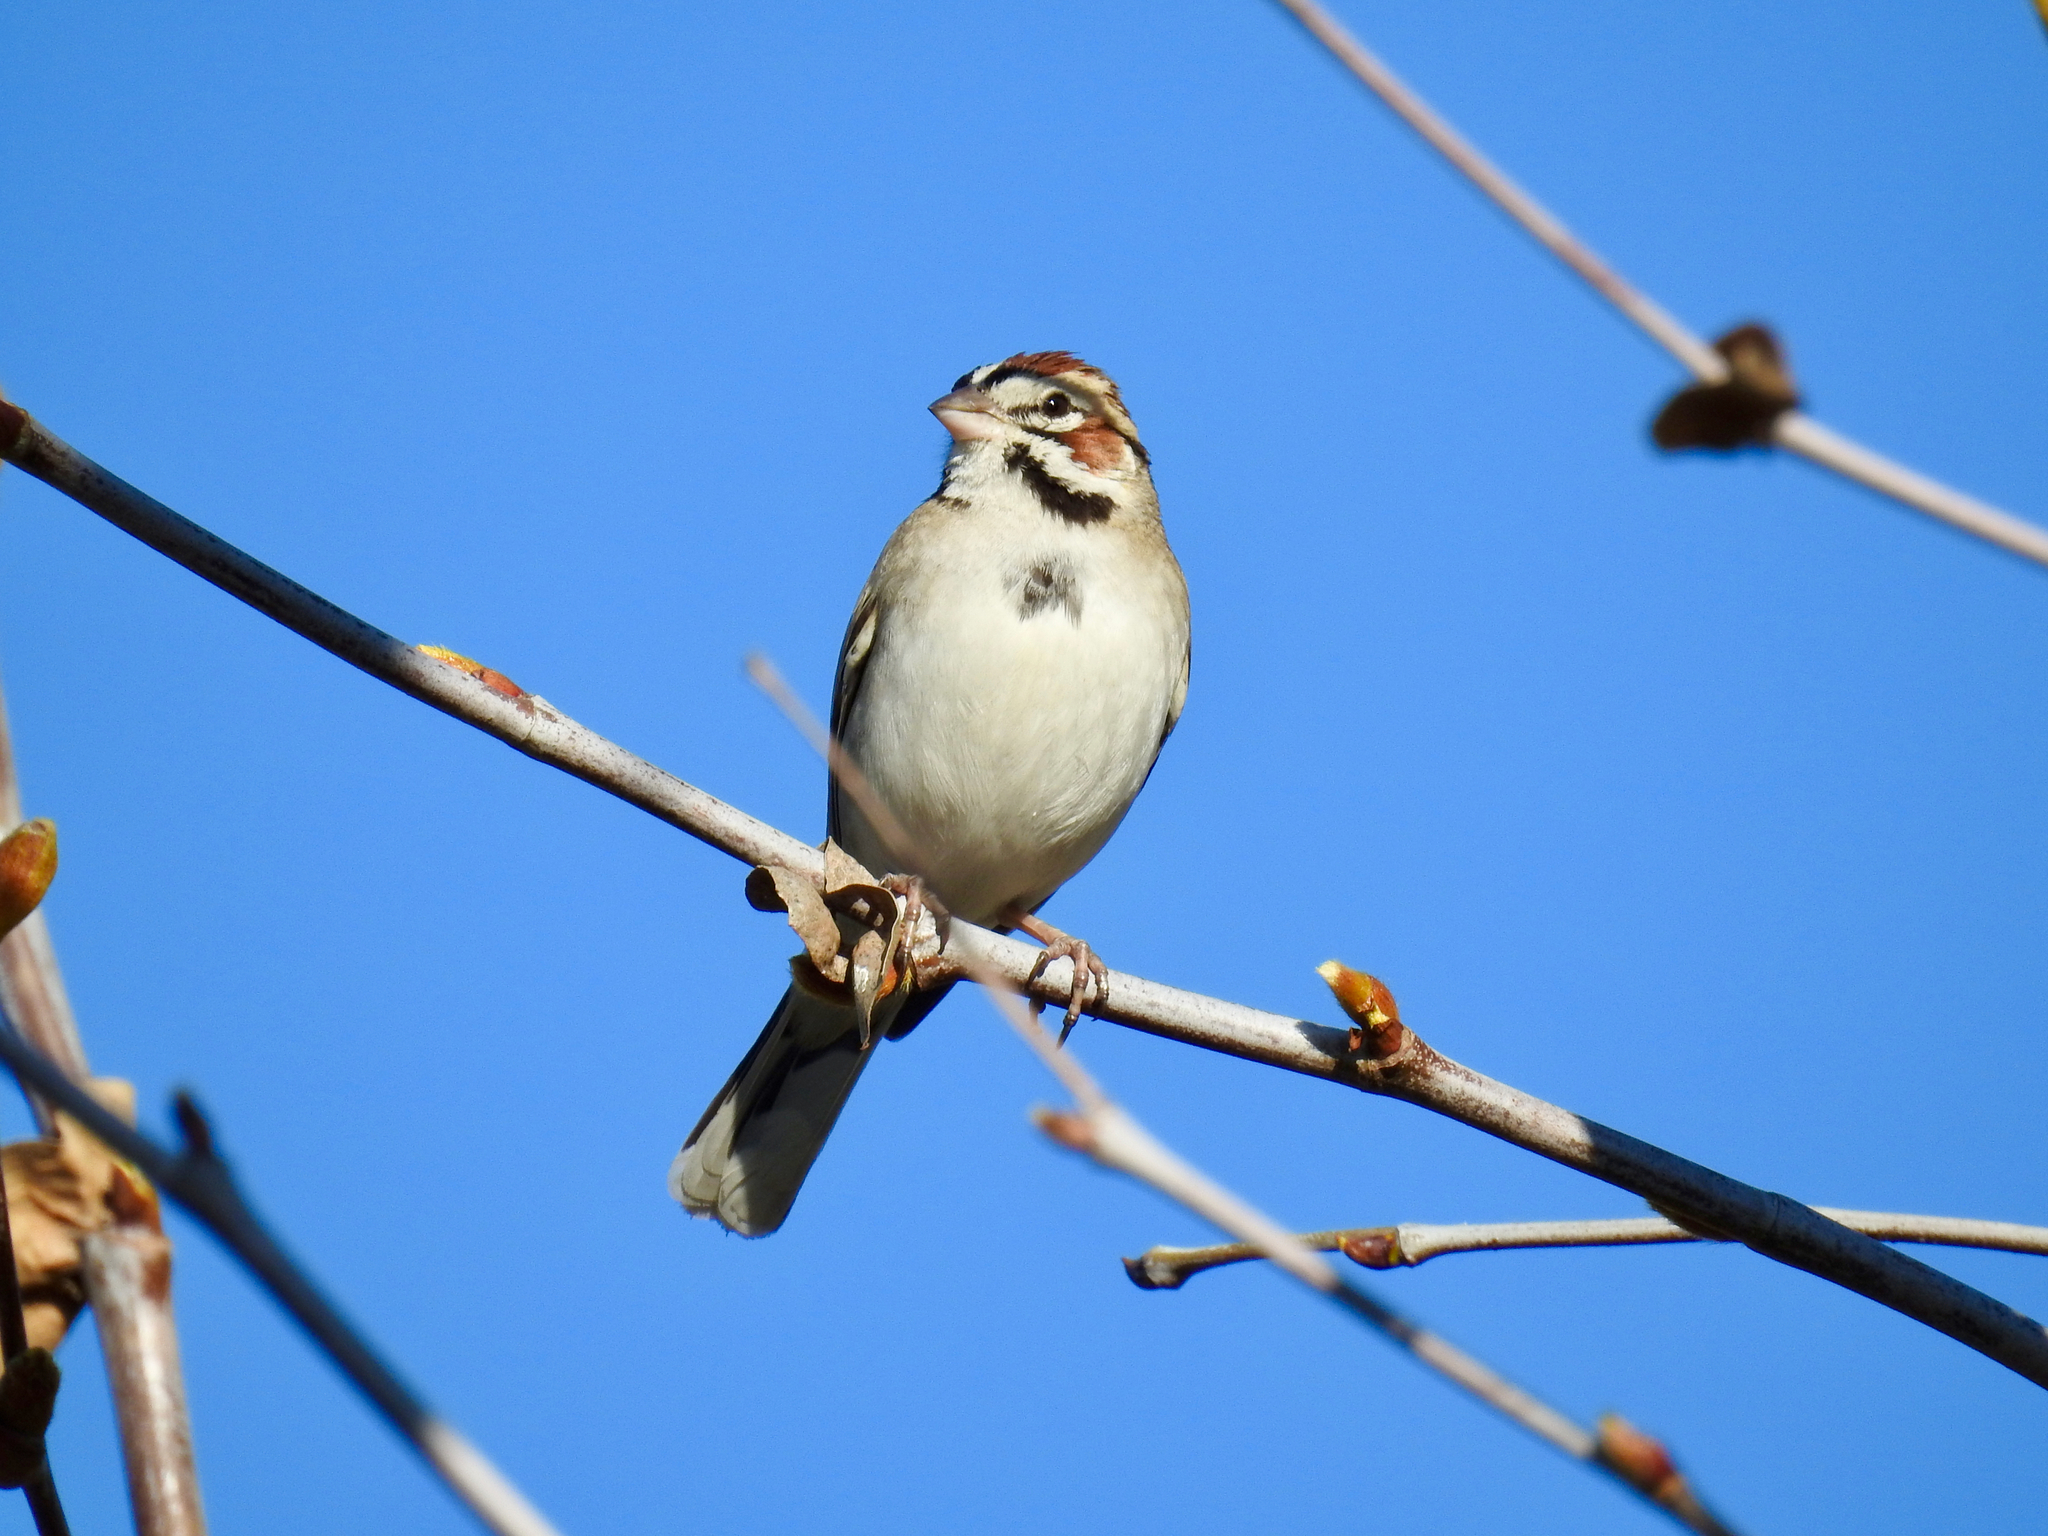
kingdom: Animalia
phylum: Chordata
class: Aves
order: Passeriformes
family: Passerellidae
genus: Chondestes
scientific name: Chondestes grammacus
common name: Lark sparrow
